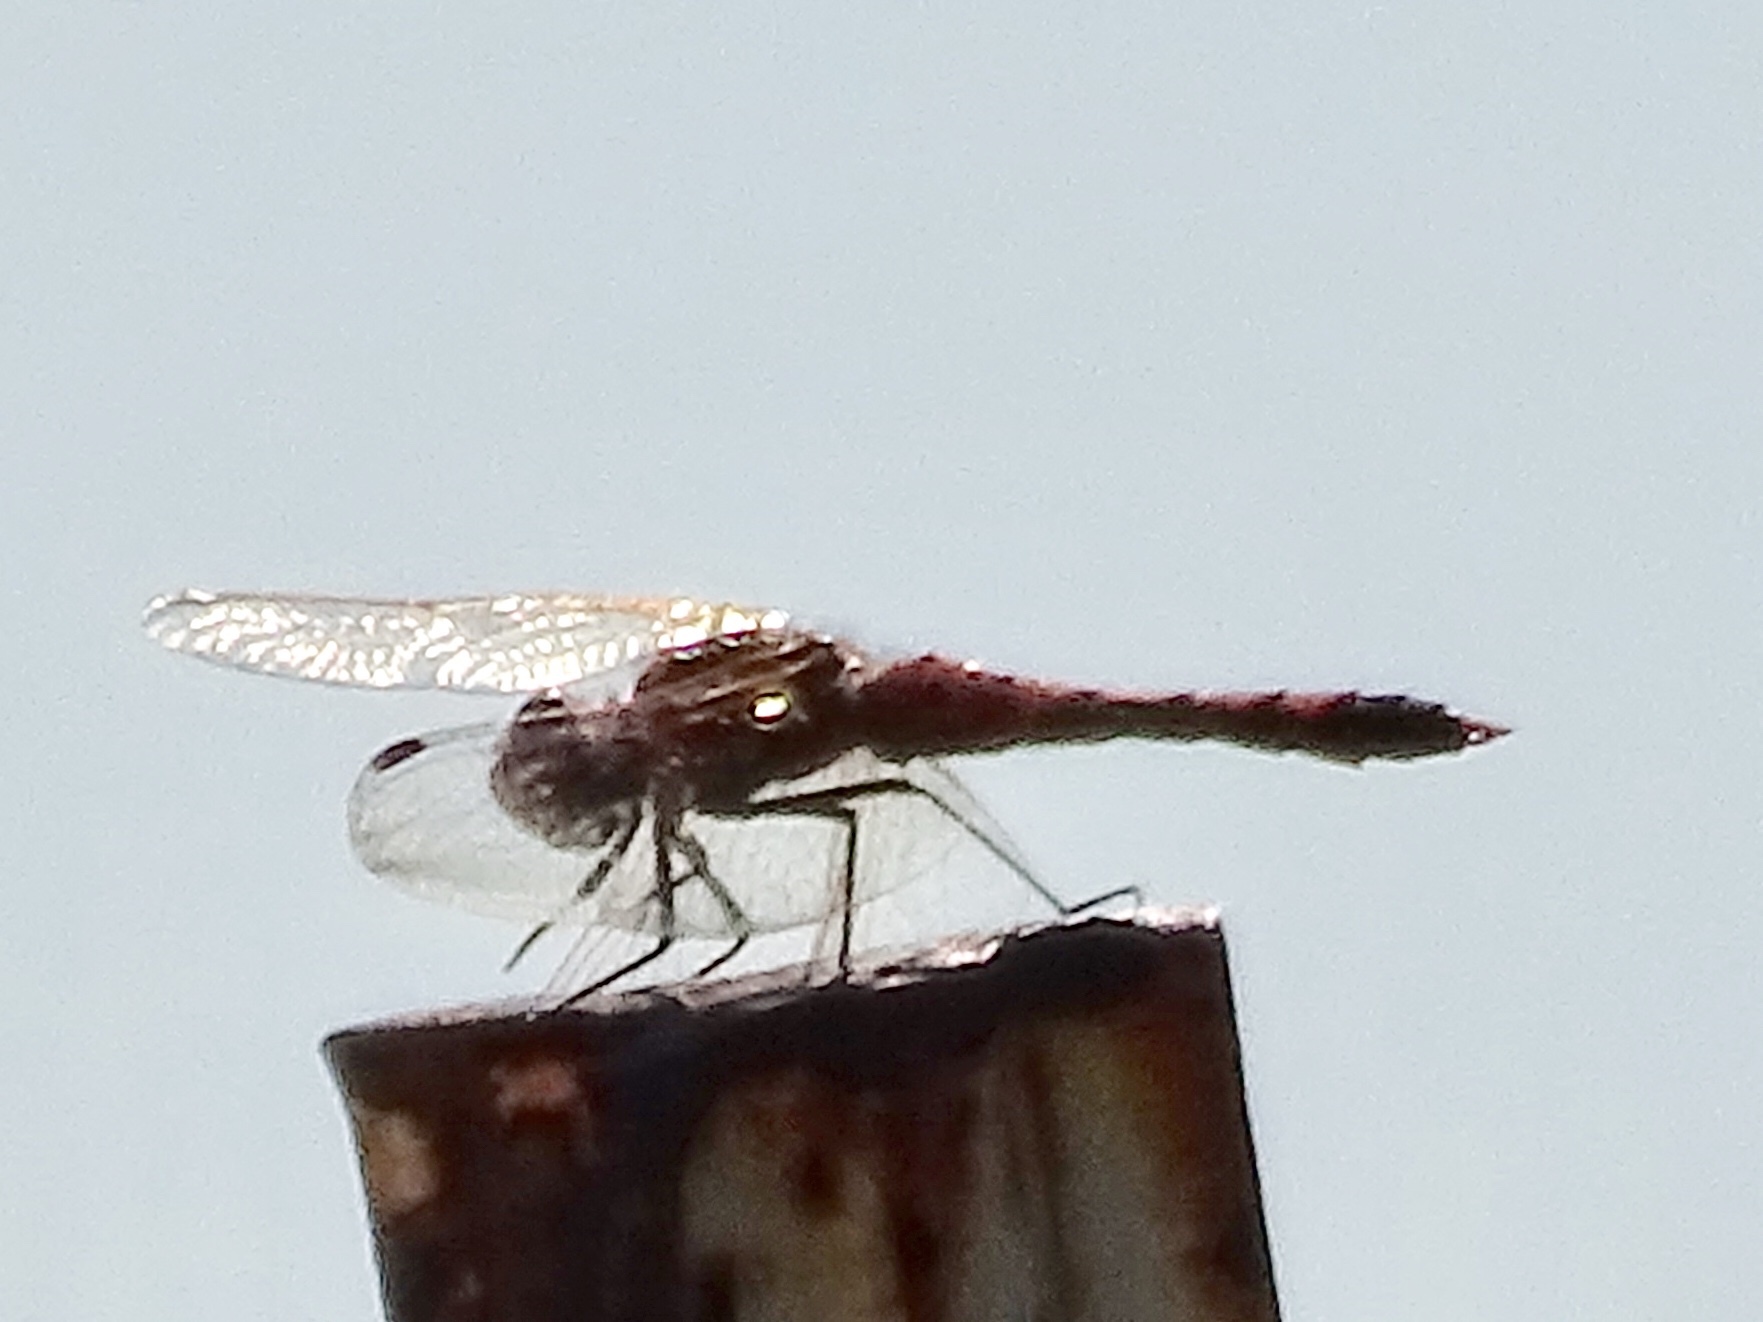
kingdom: Animalia
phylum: Arthropoda
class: Insecta
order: Odonata
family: Libellulidae
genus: Sympetrum
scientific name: Sympetrum corruptum
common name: Variegated meadowhawk
